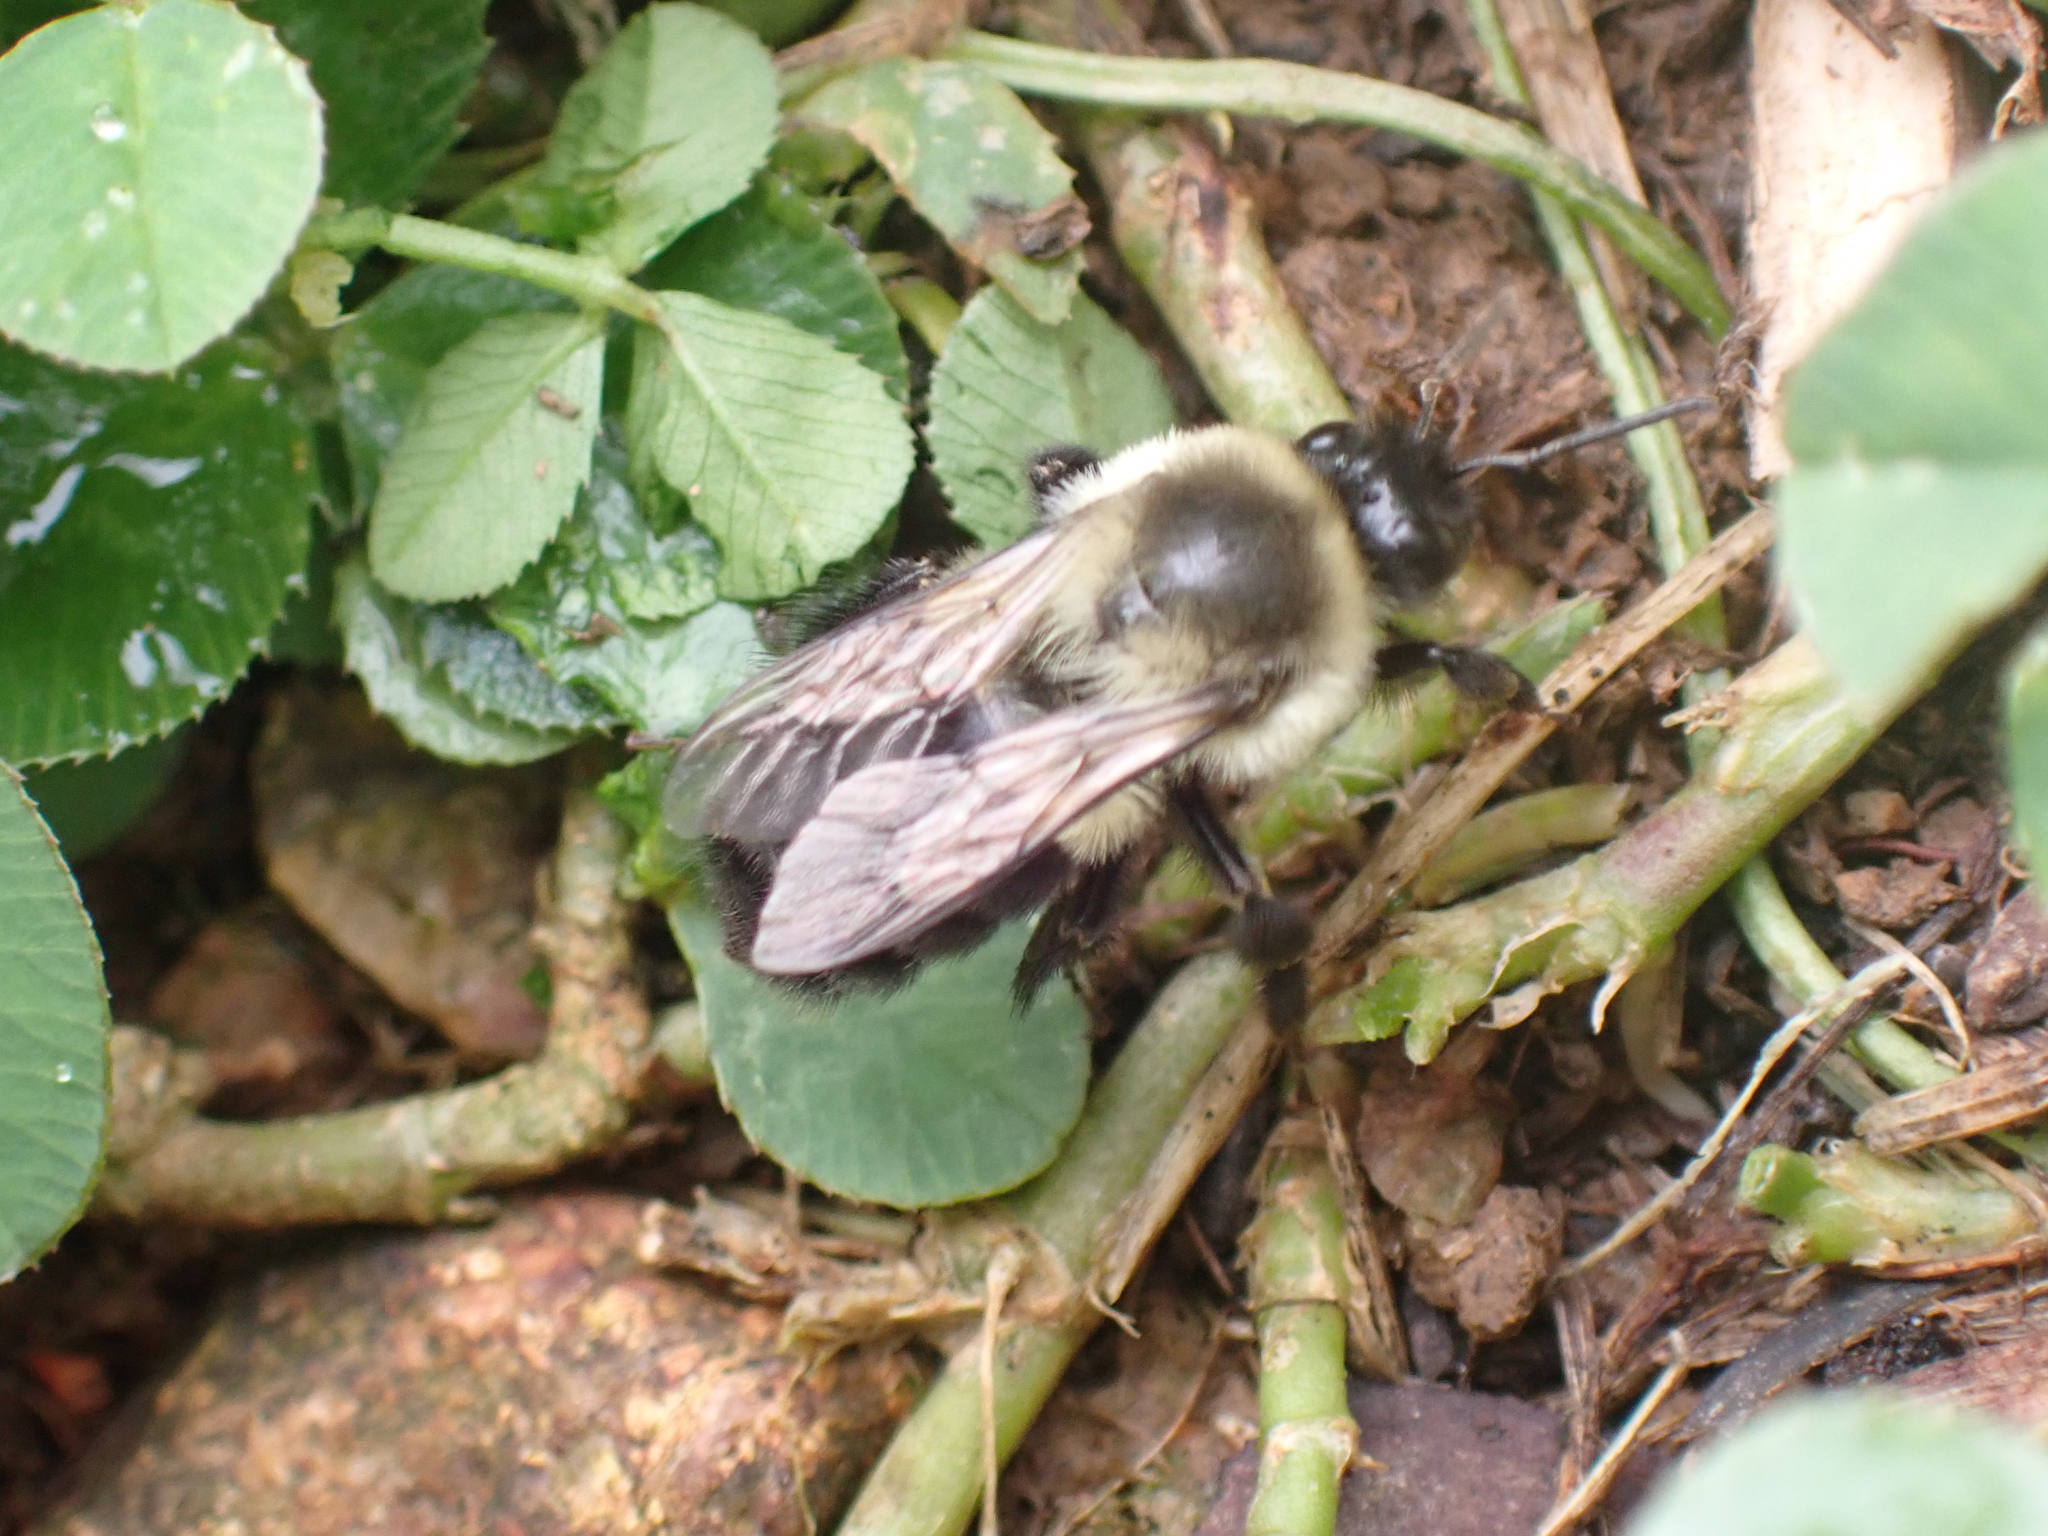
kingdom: Animalia
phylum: Arthropoda
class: Insecta
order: Hymenoptera
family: Apidae
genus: Bombus
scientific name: Bombus impatiens
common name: Common eastern bumble bee
